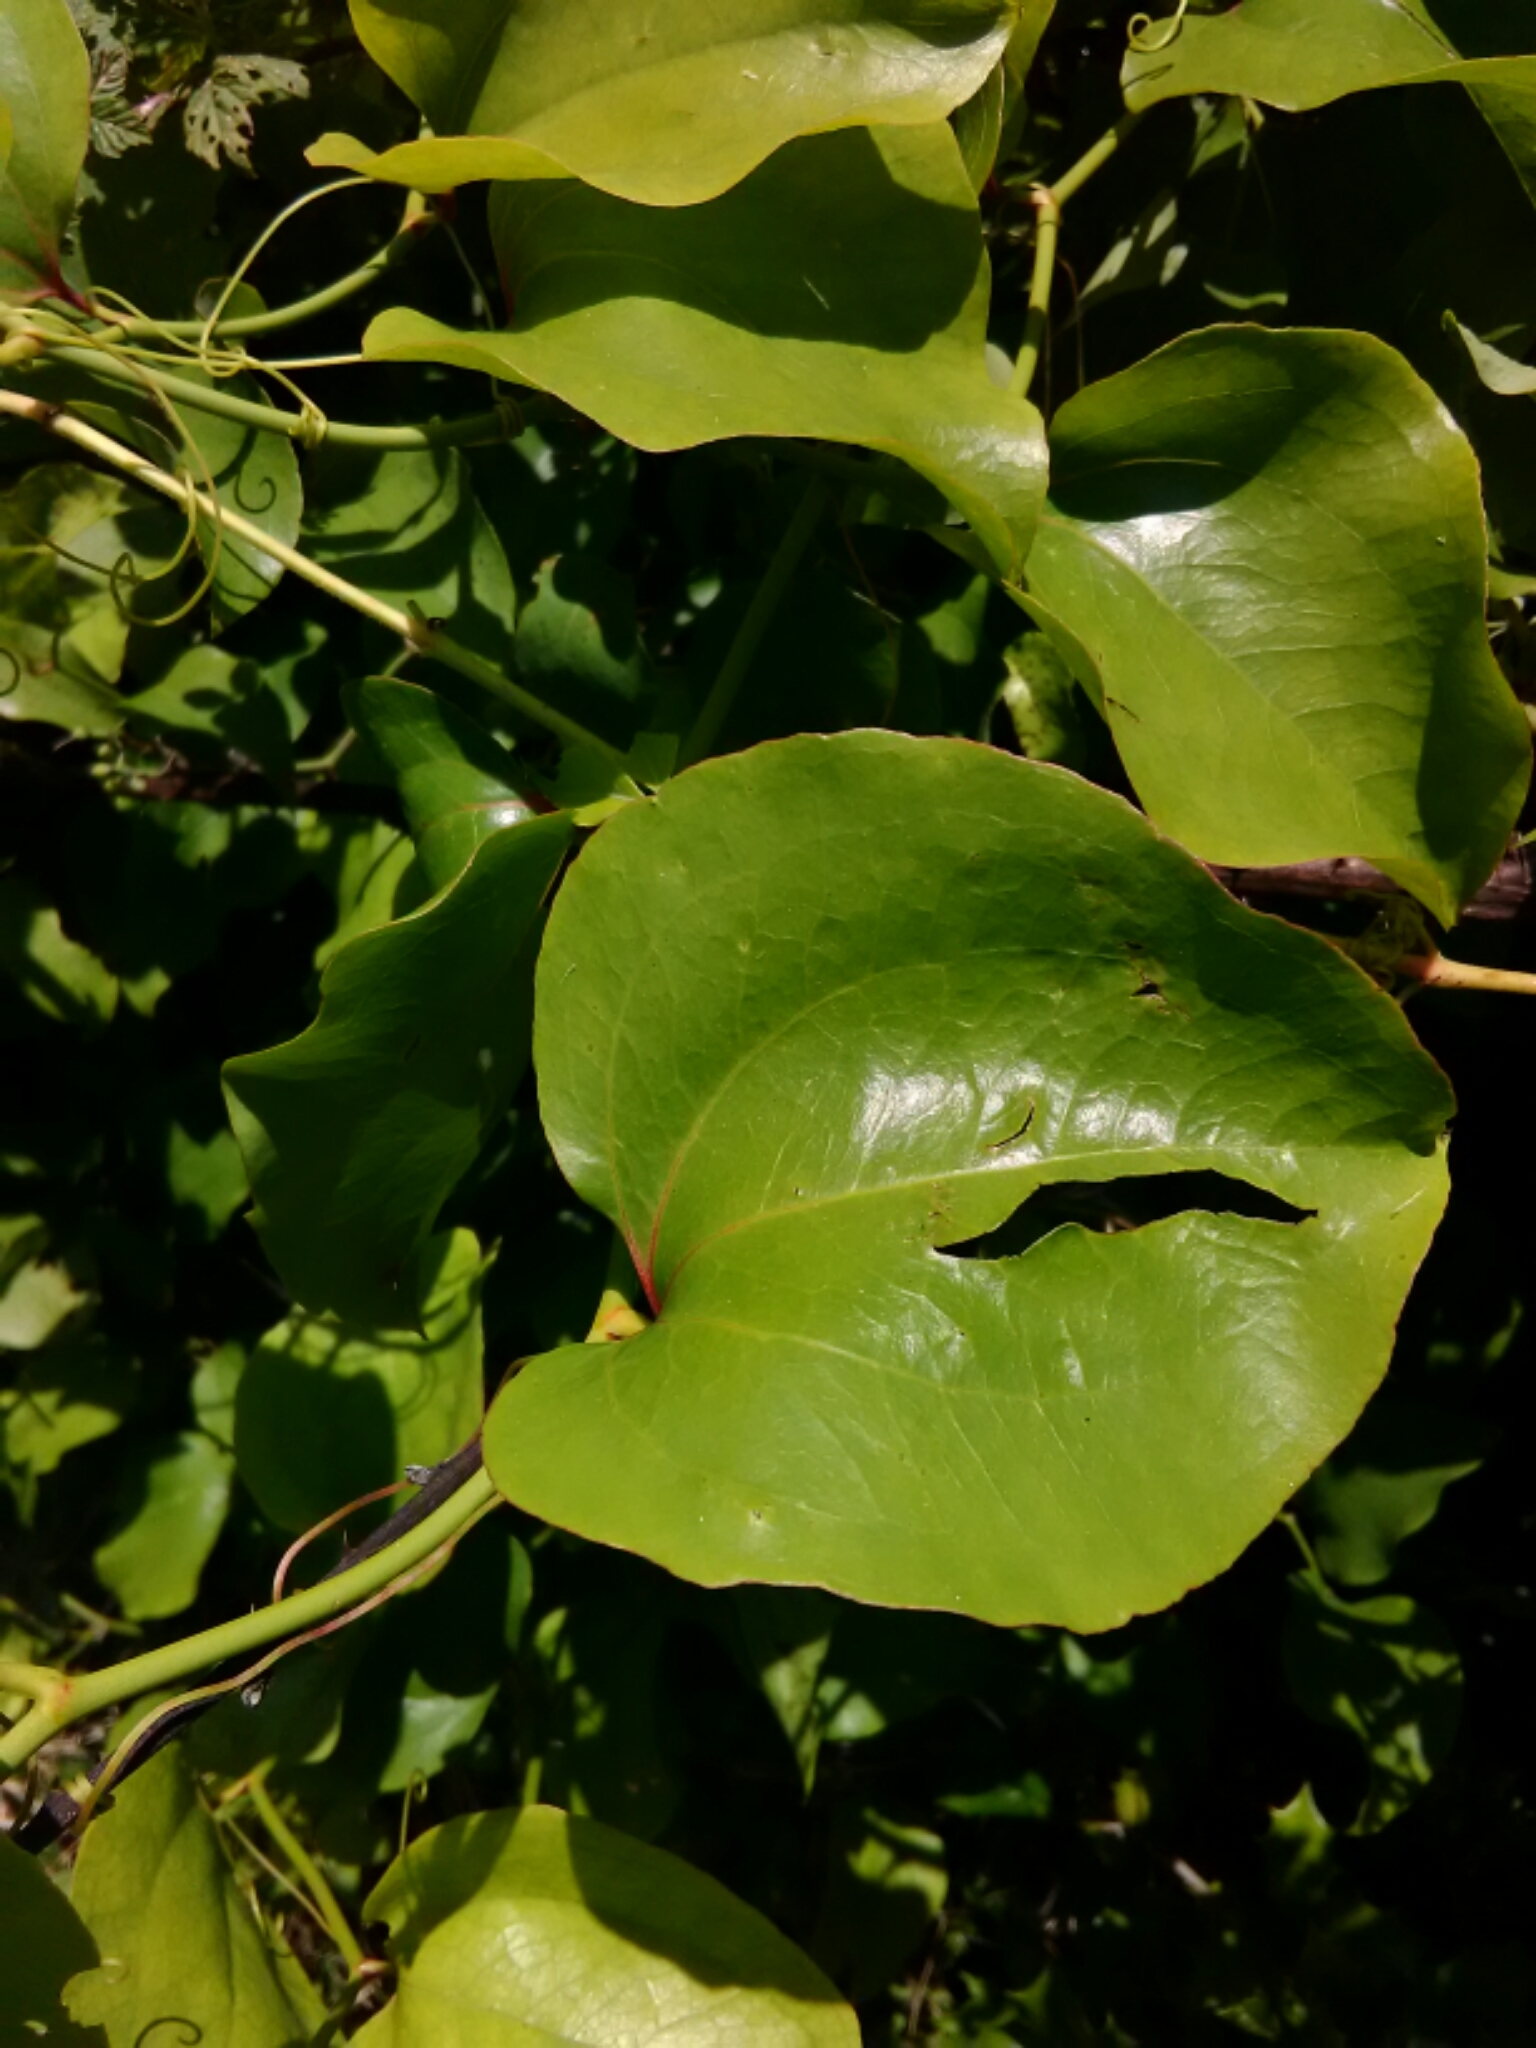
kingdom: Plantae
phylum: Tracheophyta
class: Liliopsida
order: Liliales
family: Smilacaceae
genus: Smilax
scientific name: Smilax rotundifolia
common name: Bullbriar
